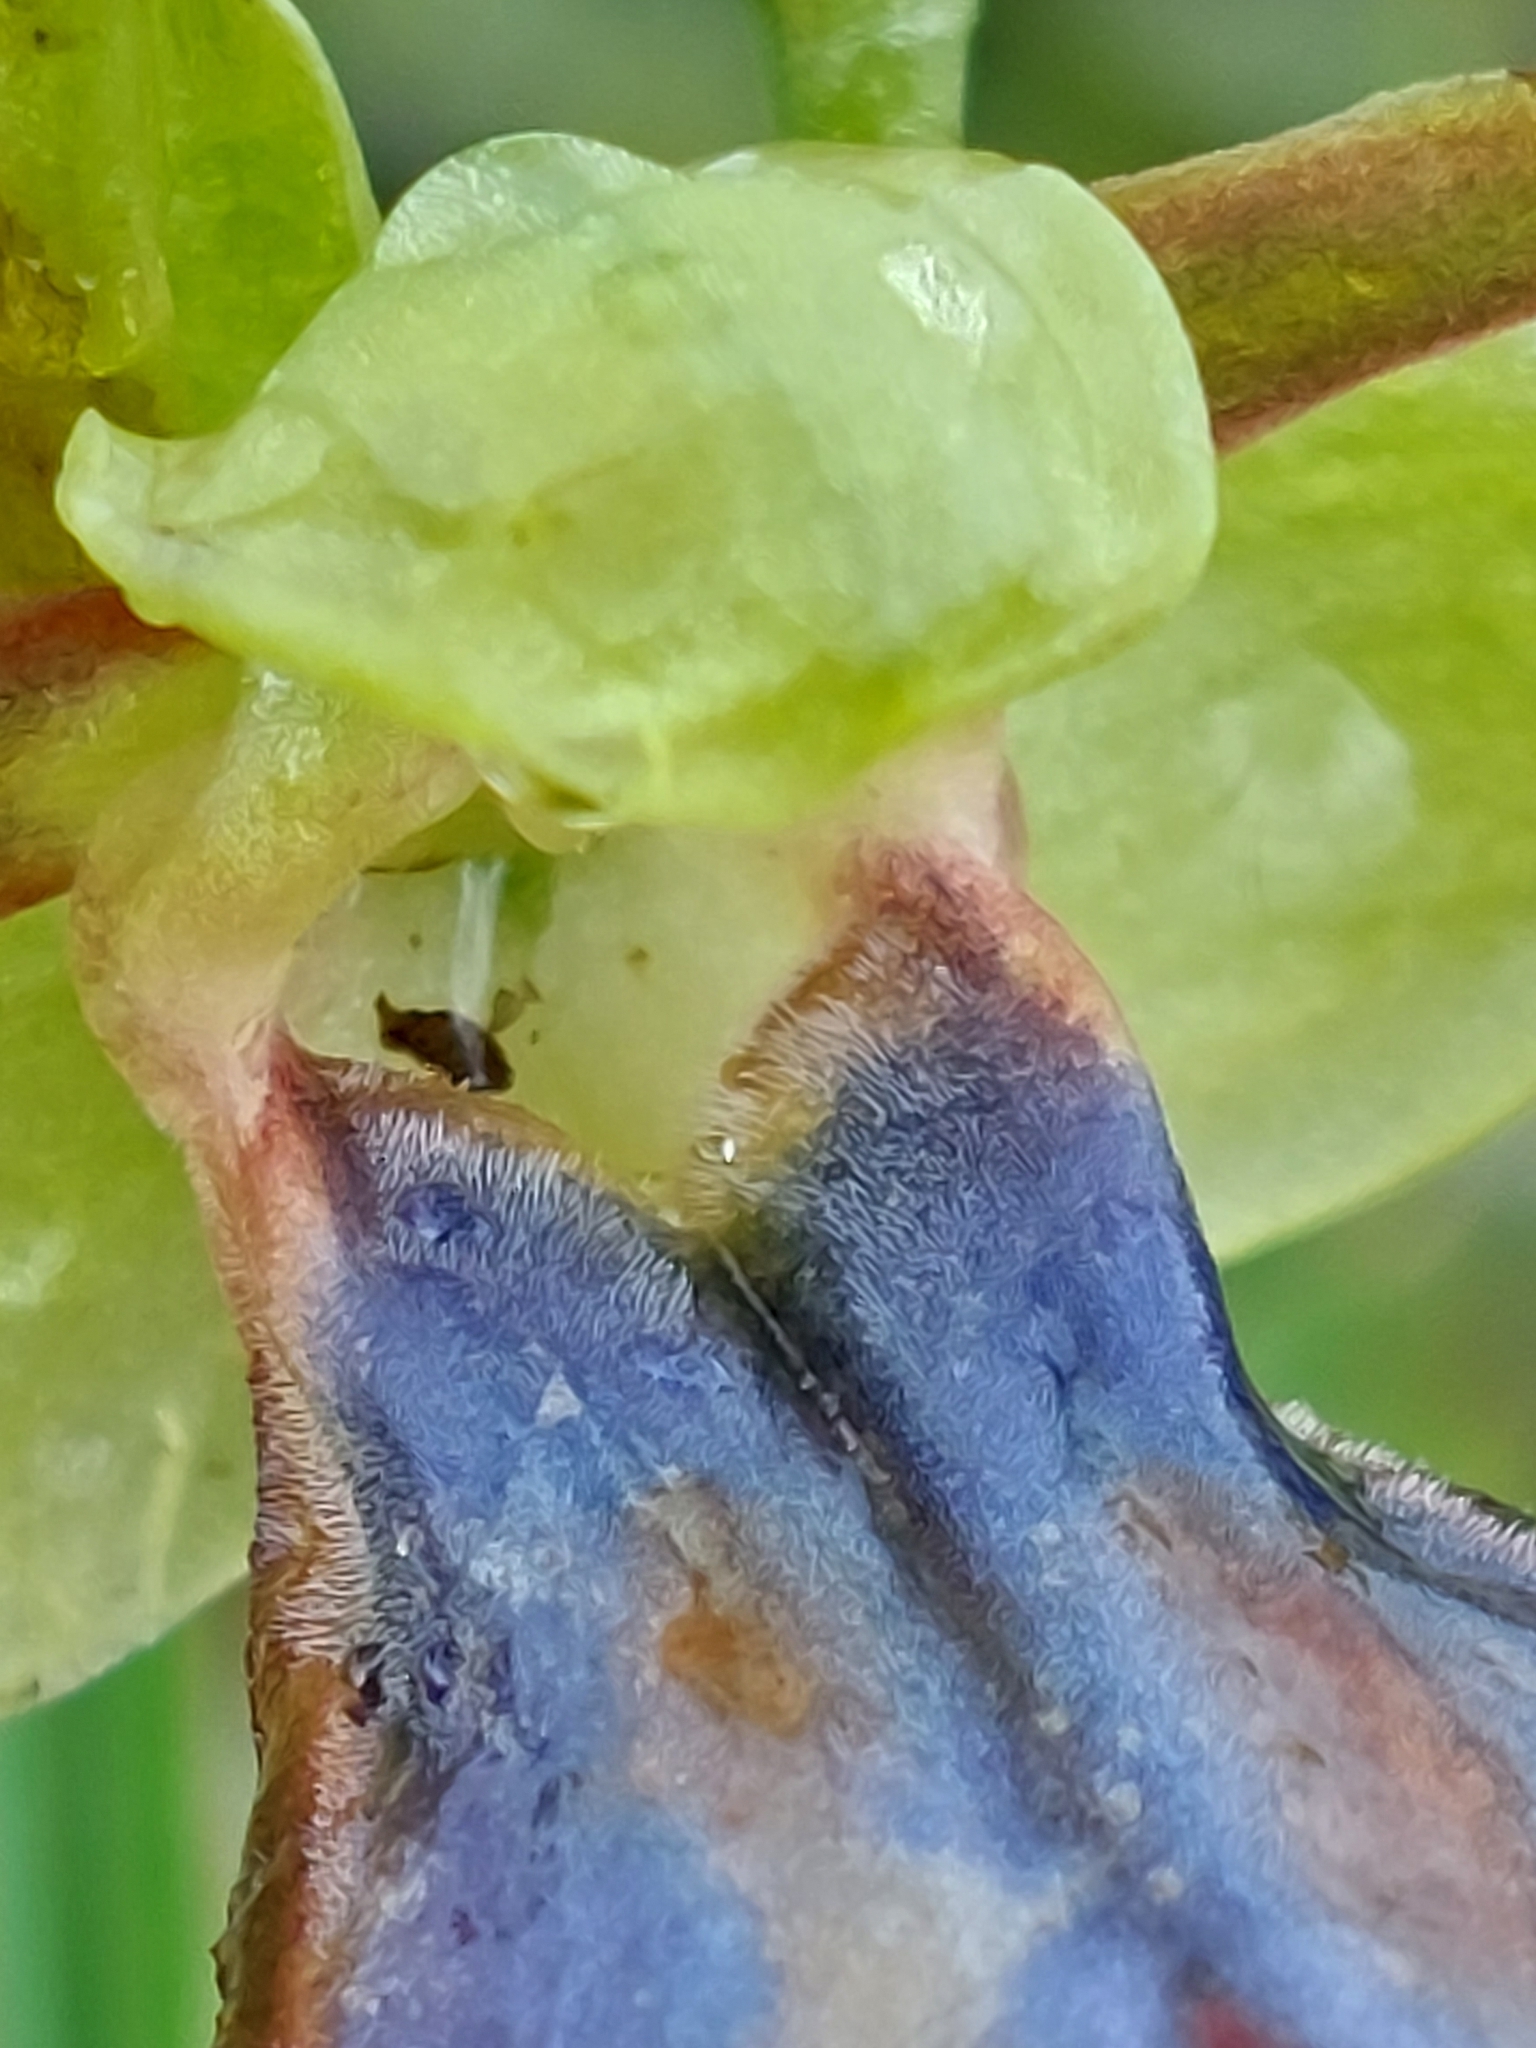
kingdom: Plantae
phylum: Tracheophyta
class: Liliopsida
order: Asparagales
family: Orchidaceae
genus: Ophrys
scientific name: Ophrys fusca
